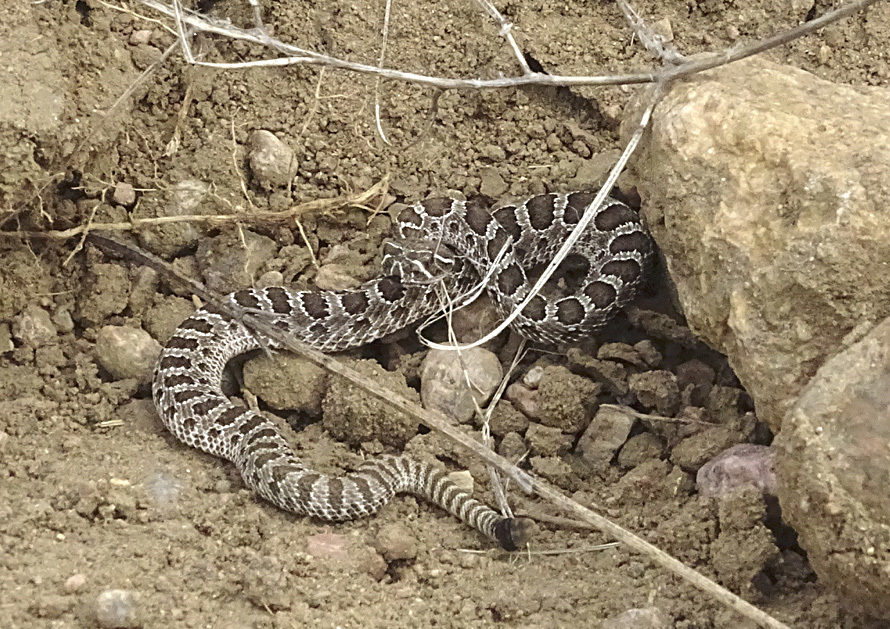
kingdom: Animalia
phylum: Chordata
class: Squamata
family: Viperidae
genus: Crotalus
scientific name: Crotalus viridis
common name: Prairie rattlesnake
